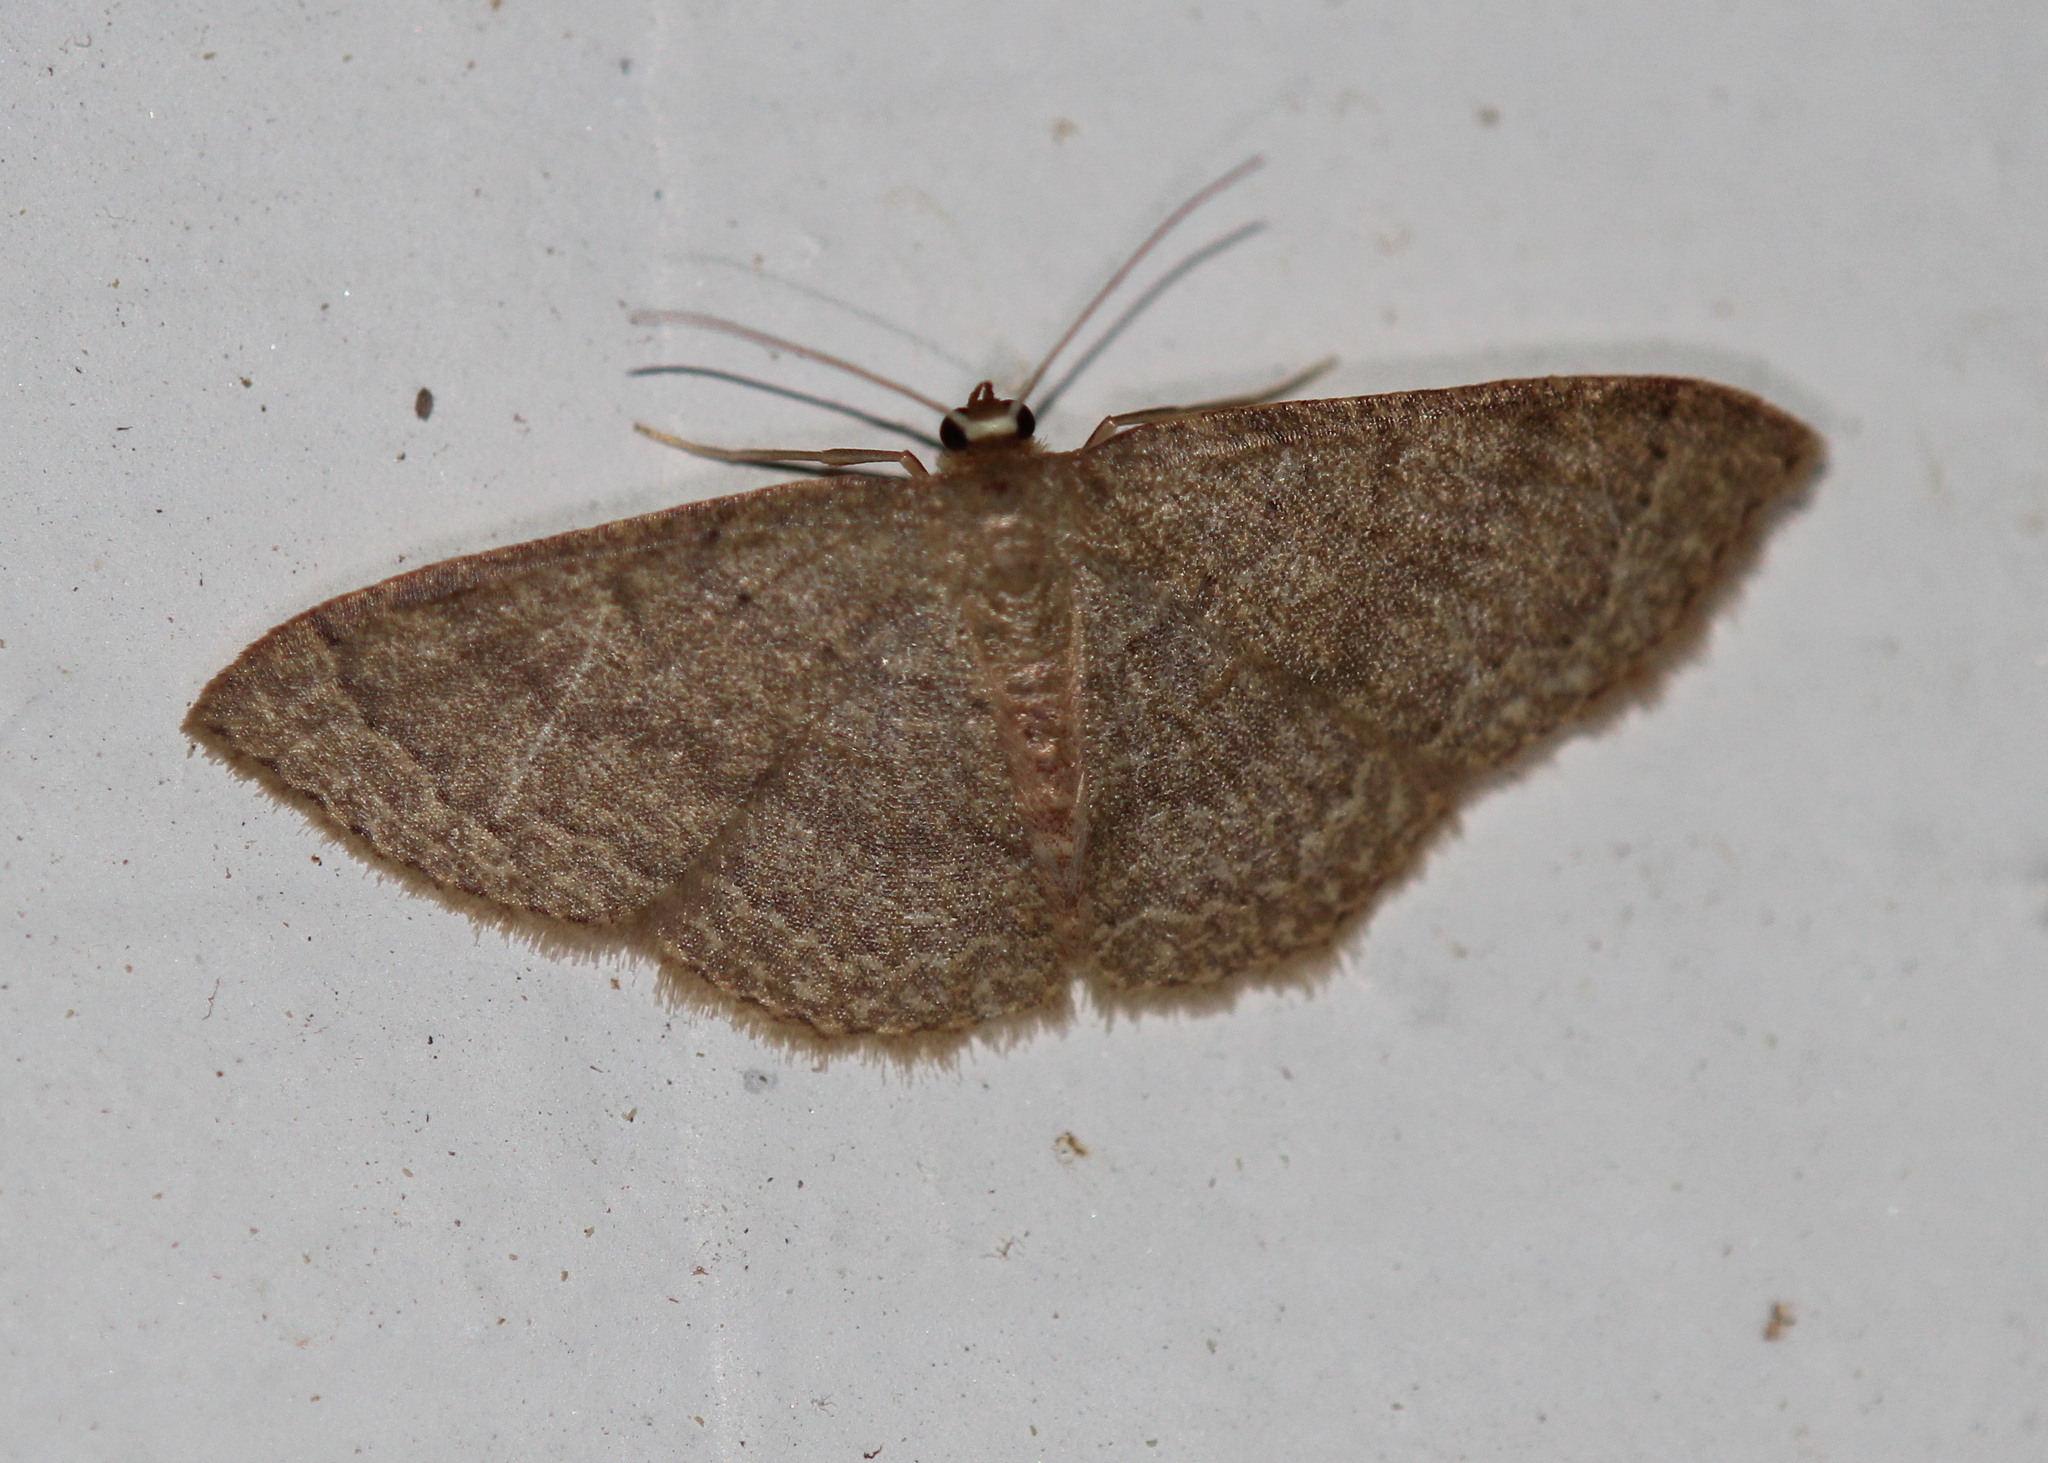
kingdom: Animalia
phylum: Arthropoda
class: Insecta
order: Lepidoptera
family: Geometridae
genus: Pleuroprucha
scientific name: Pleuroprucha insulsaria
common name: Common tan wave
